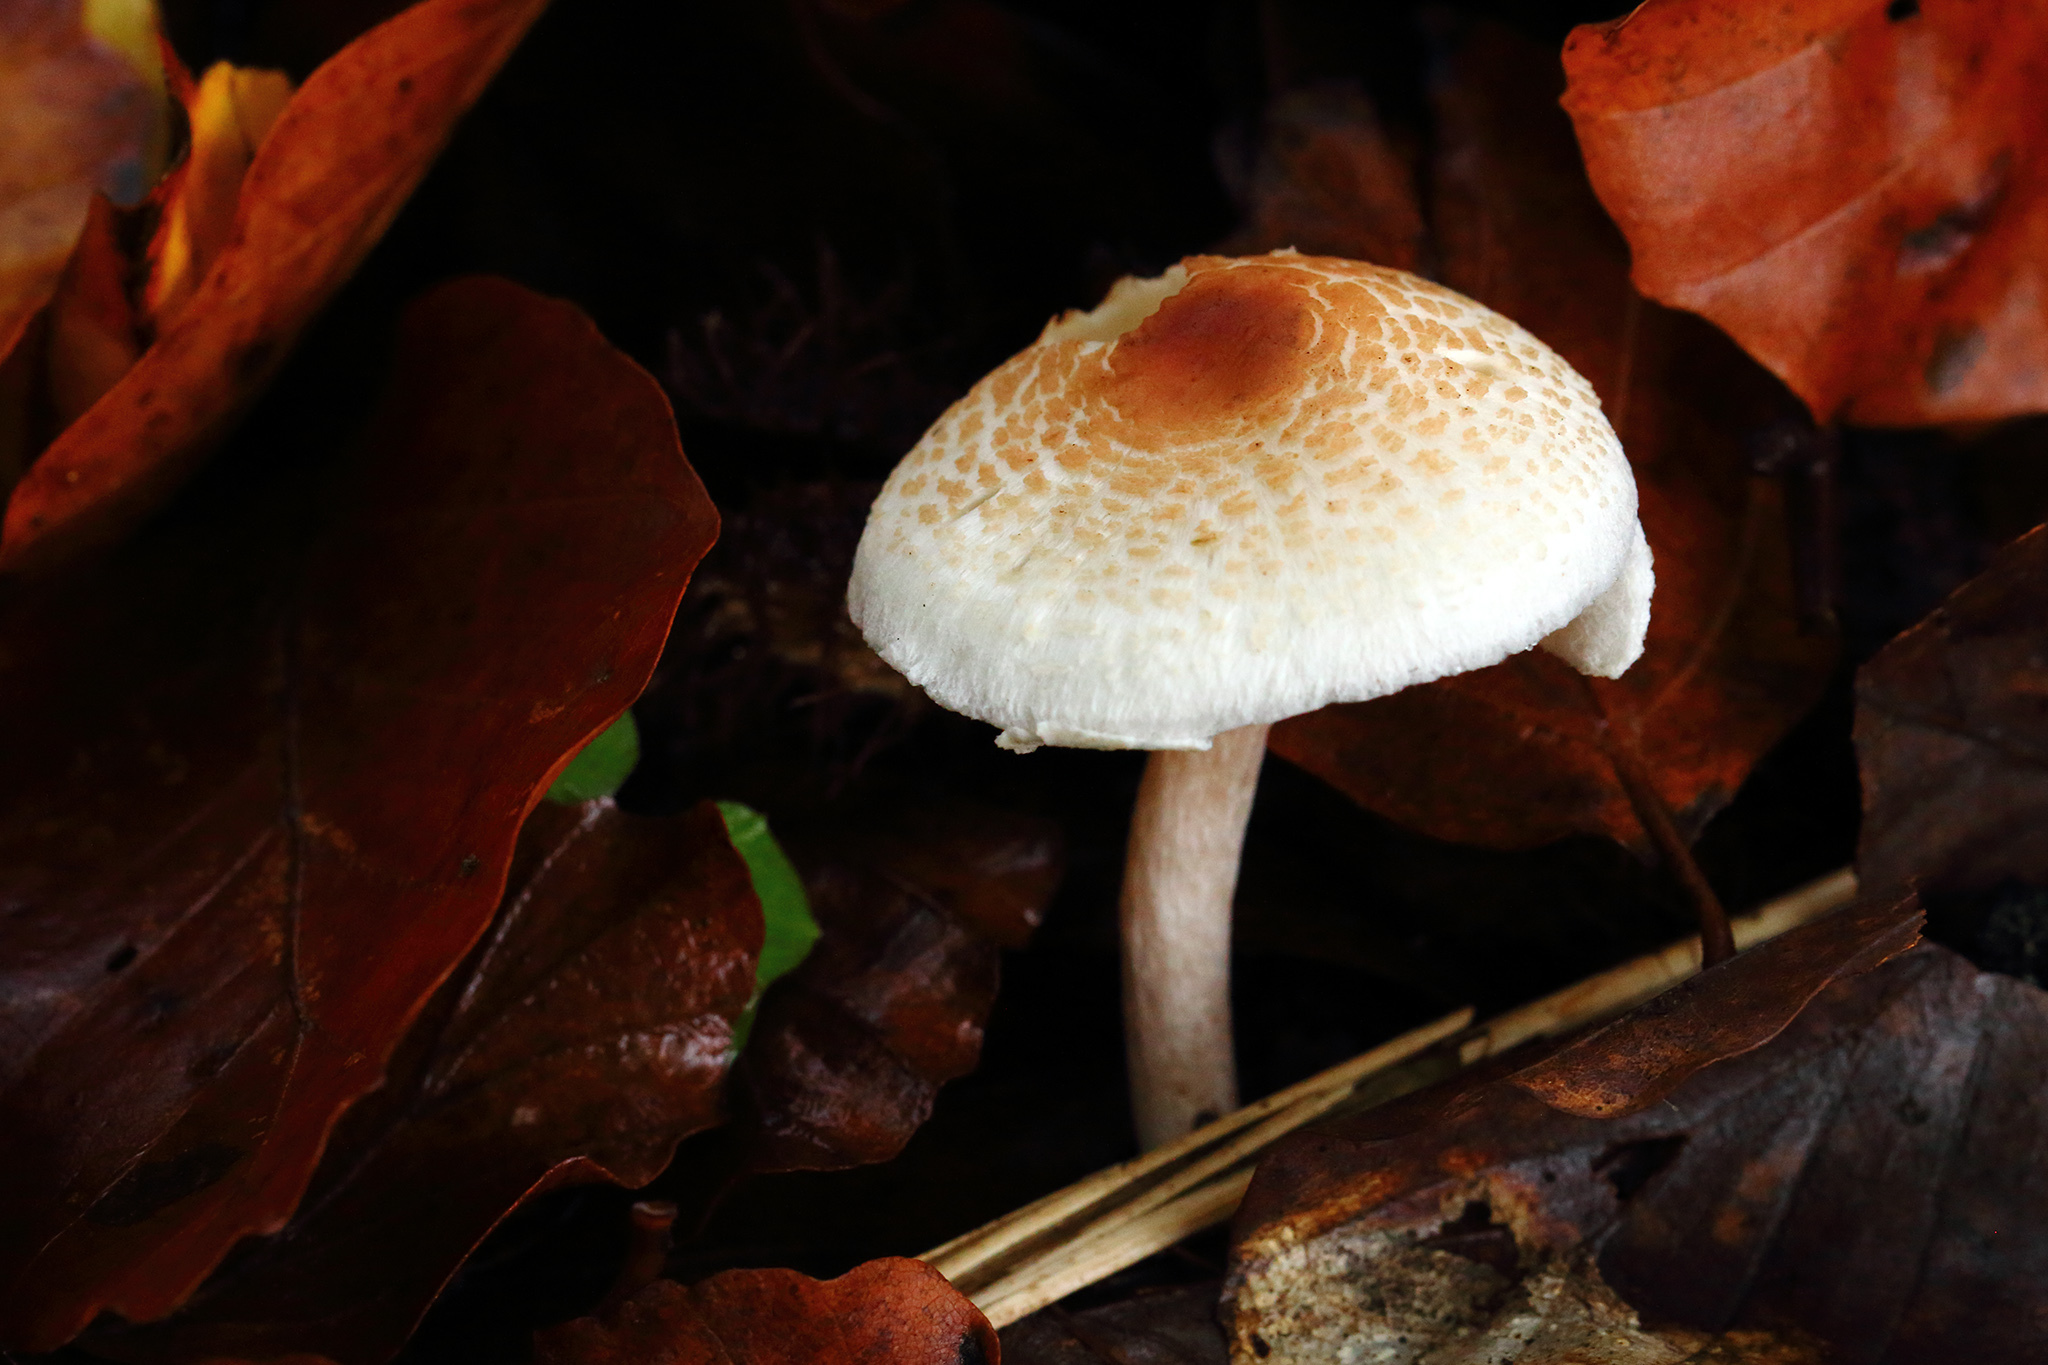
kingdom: Fungi
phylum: Basidiomycota
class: Agaricomycetes
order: Agaricales
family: Agaricaceae
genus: Lepiota
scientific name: Lepiota cristata
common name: Stinking dapperling
